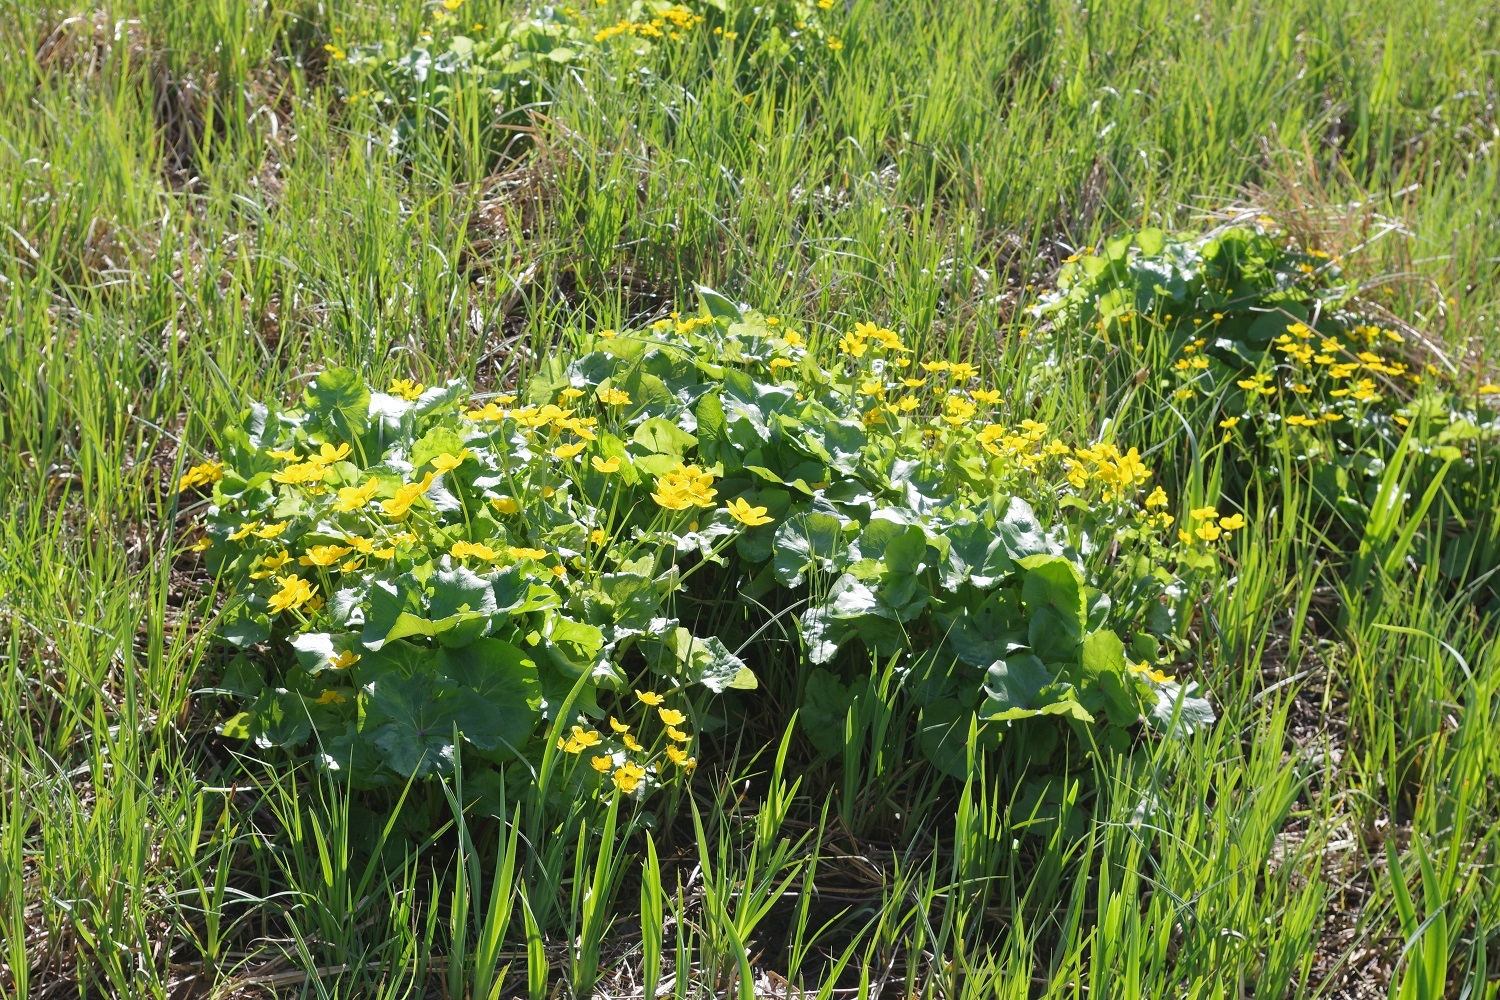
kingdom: Plantae
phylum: Tracheophyta
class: Magnoliopsida
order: Ranunculales
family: Ranunculaceae
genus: Caltha
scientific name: Caltha palustris
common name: Marsh marigold
